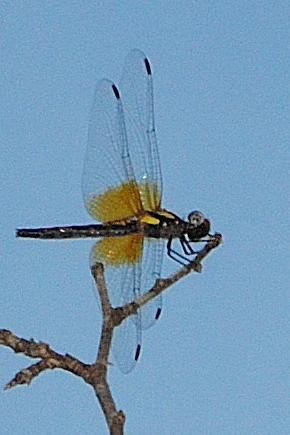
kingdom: Animalia
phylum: Arthropoda
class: Insecta
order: Odonata
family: Libellulidae
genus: Sympetrum
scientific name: Sympetrum speciosum
